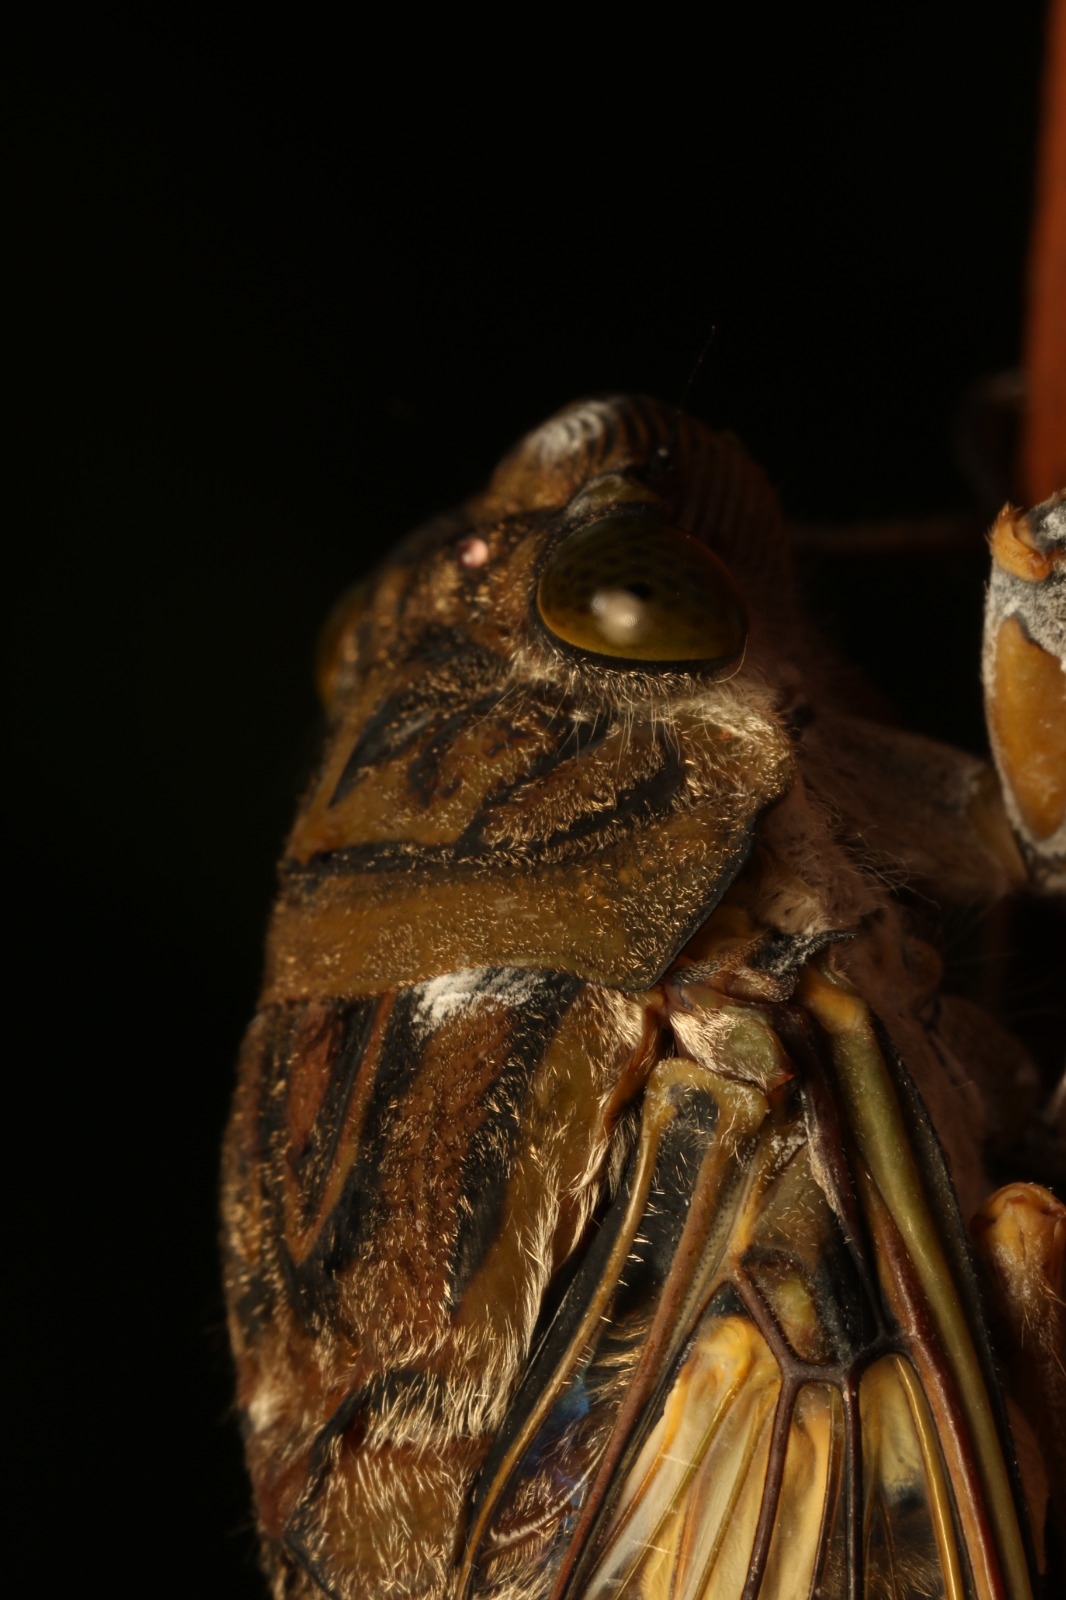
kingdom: Animalia
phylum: Arthropoda
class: Insecta
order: Hemiptera
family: Cicadidae
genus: Quesada
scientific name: Quesada gigas
